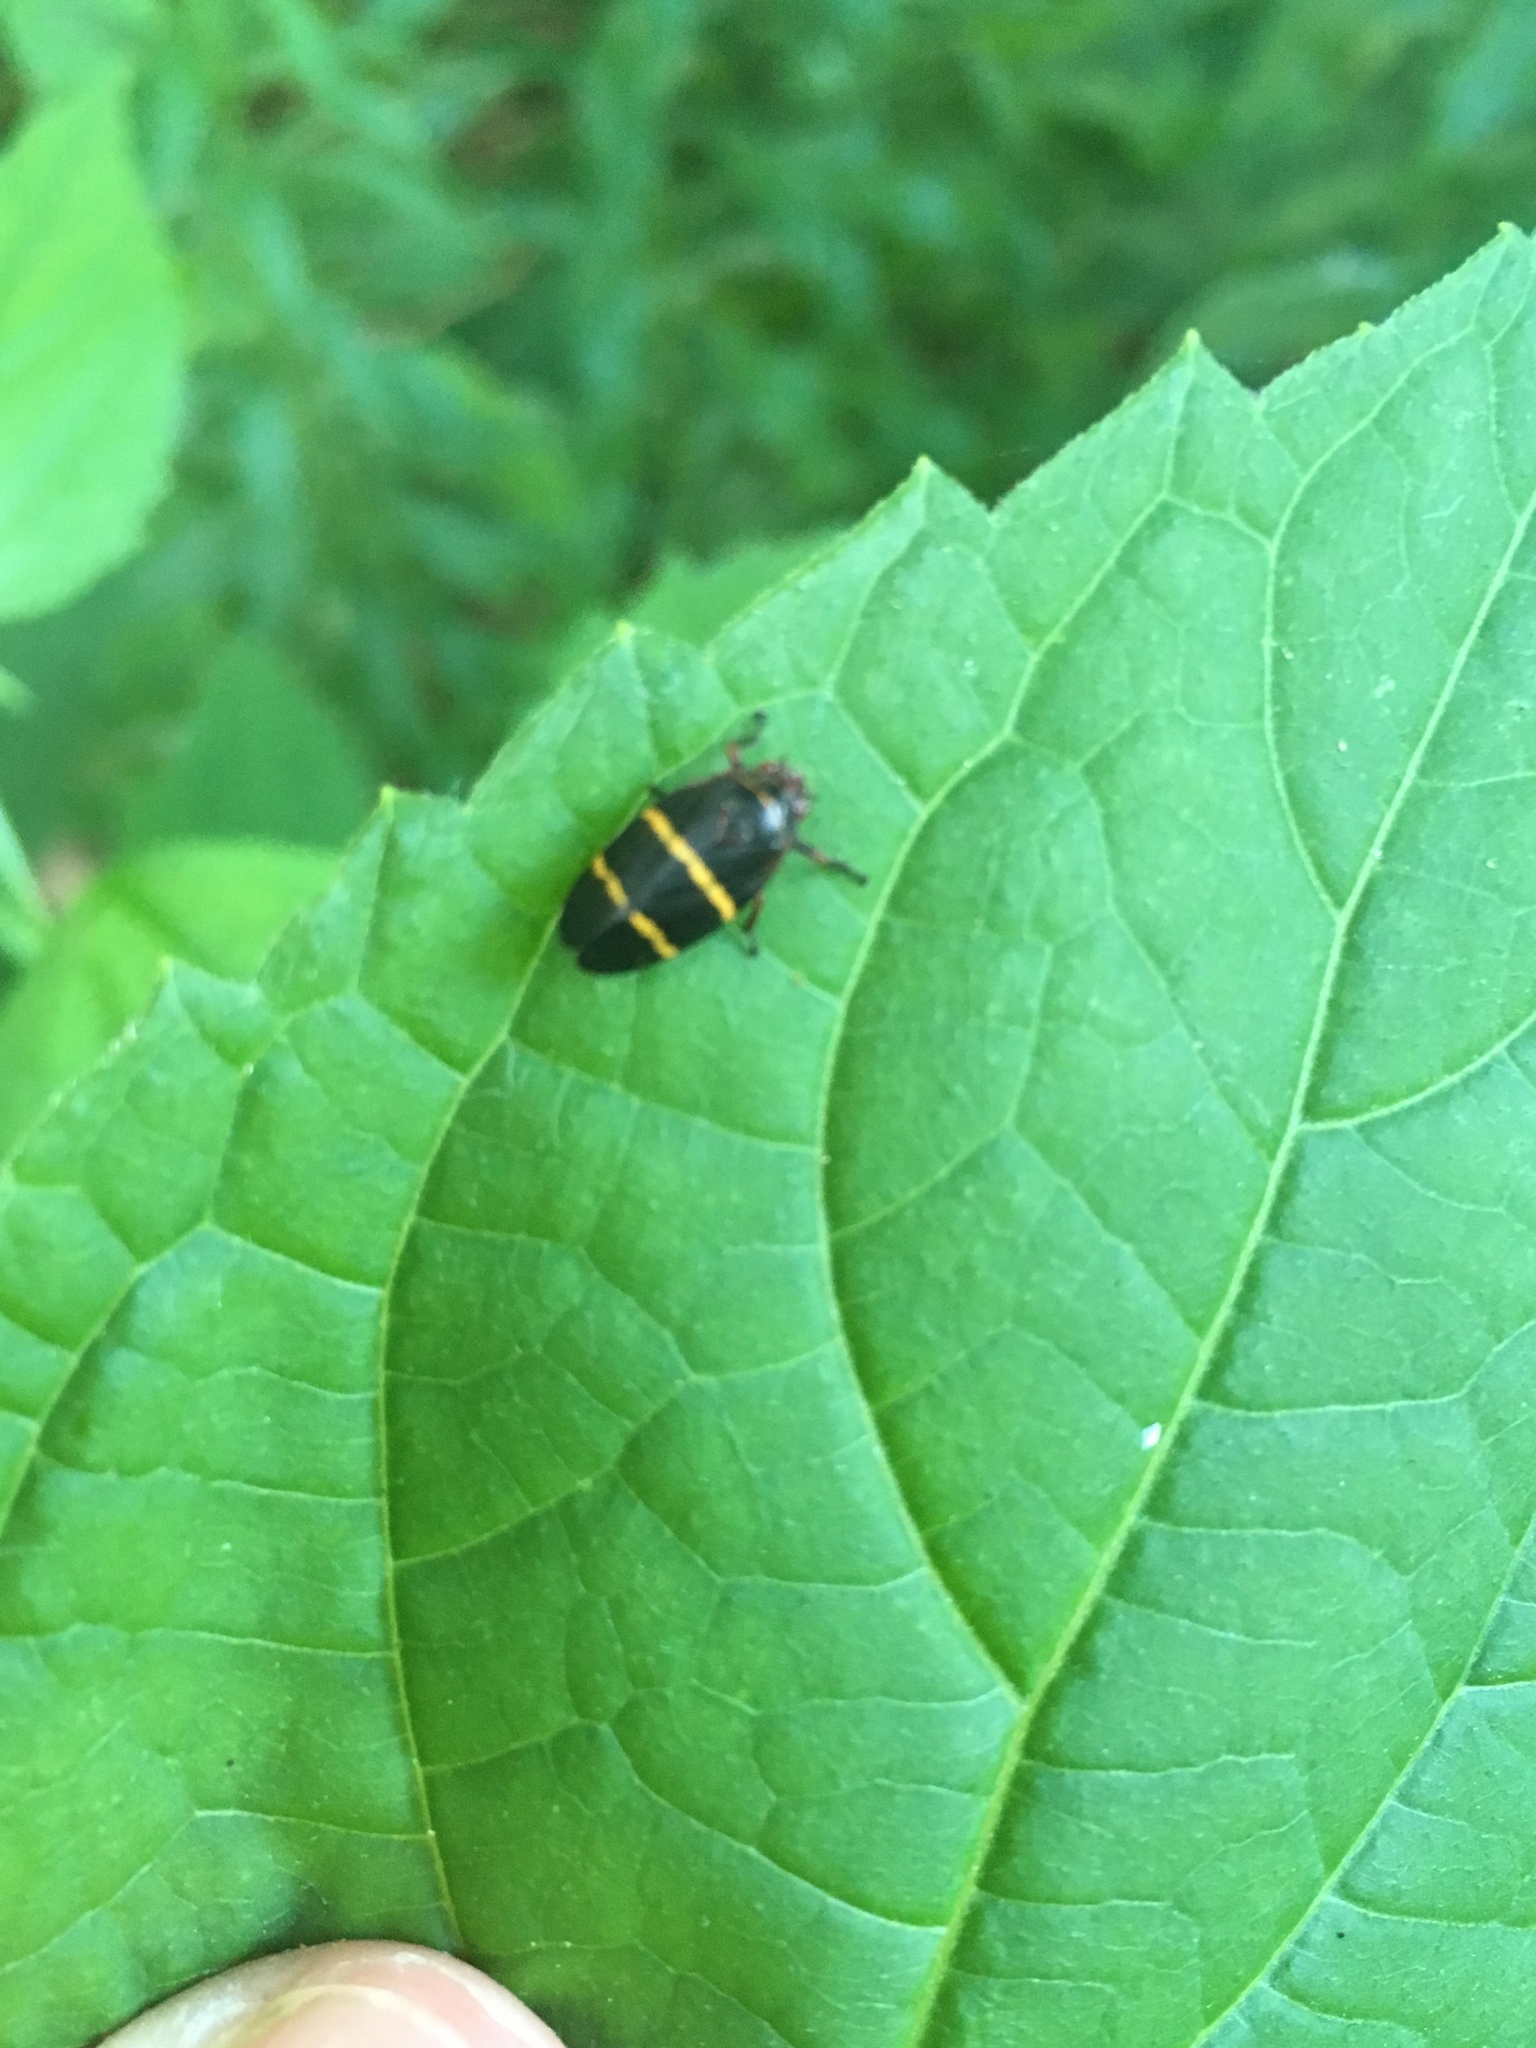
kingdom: Animalia
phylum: Arthropoda
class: Insecta
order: Hemiptera
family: Cercopidae
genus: Prosapia
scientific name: Prosapia bicincta
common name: Twolined spittlebug
